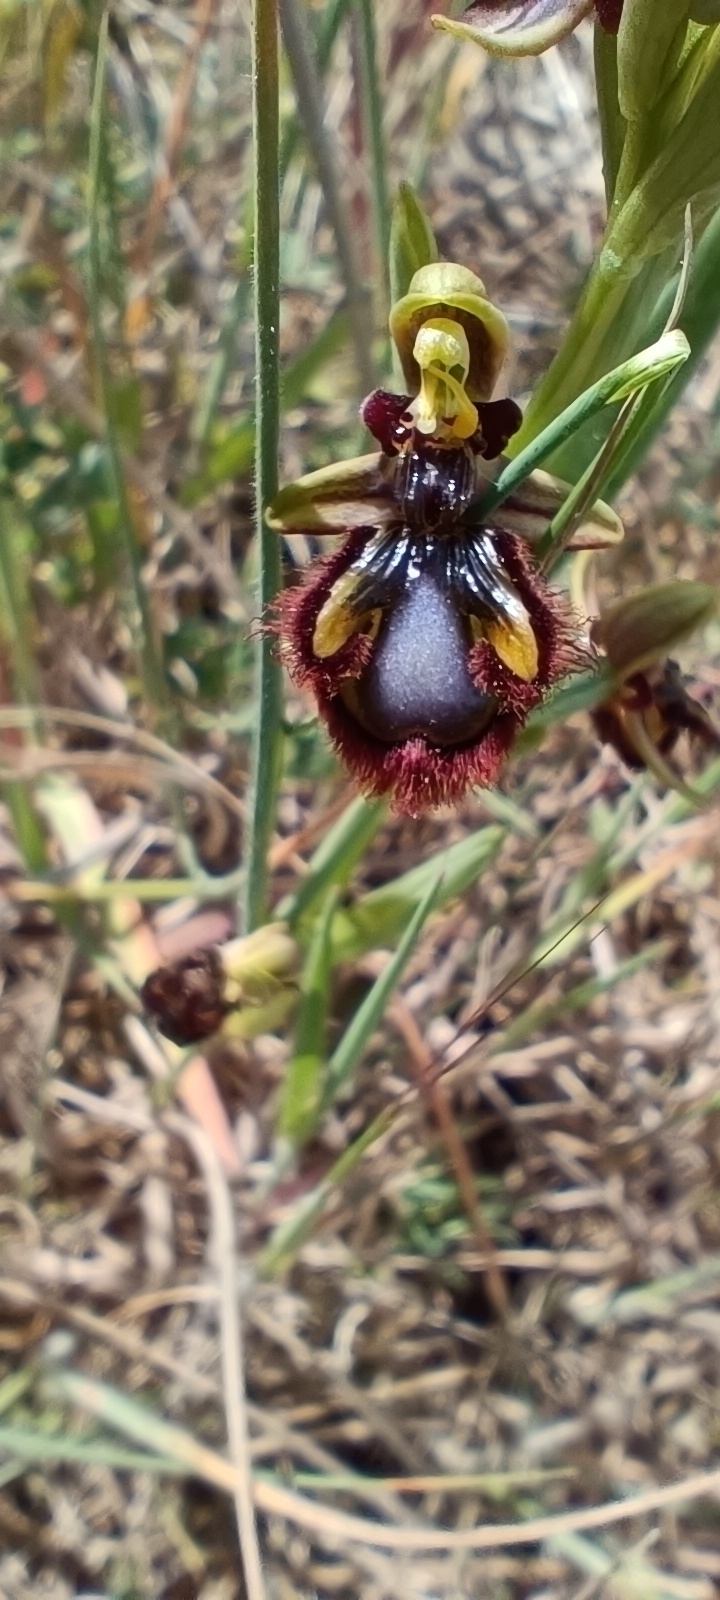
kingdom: Plantae
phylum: Tracheophyta
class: Liliopsida
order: Asparagales
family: Orchidaceae
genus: Ophrys
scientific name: Ophrys speculum
